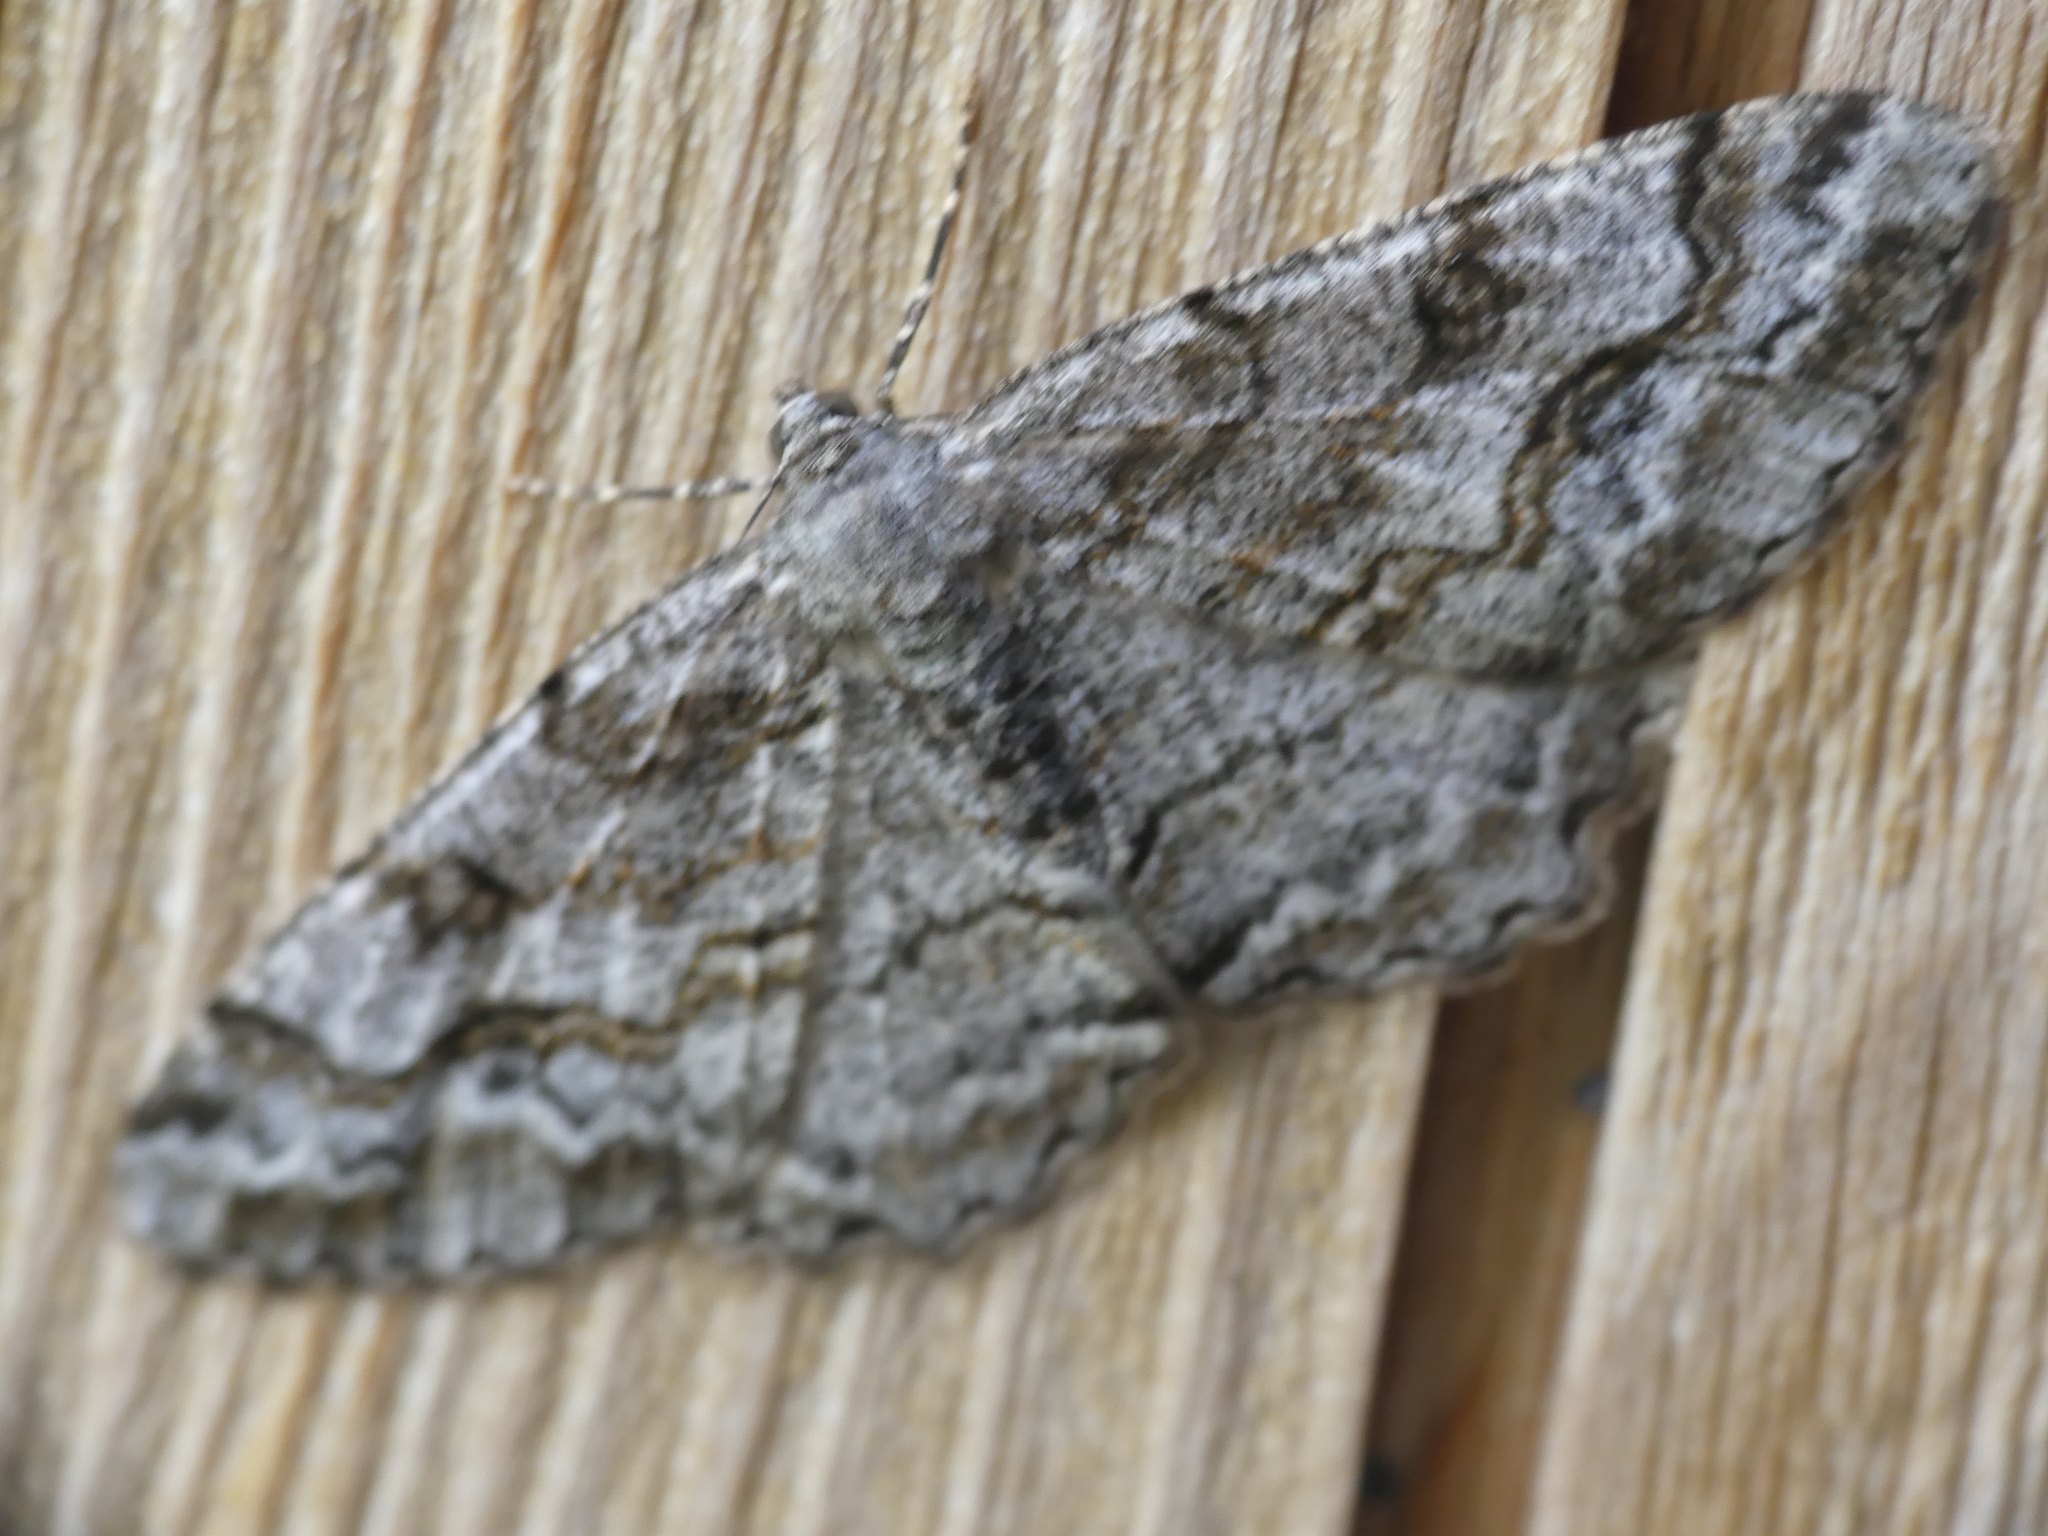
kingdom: Animalia
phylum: Arthropoda
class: Insecta
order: Lepidoptera
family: Geometridae
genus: Alcis
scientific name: Alcis repandata
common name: Mottled beauty
